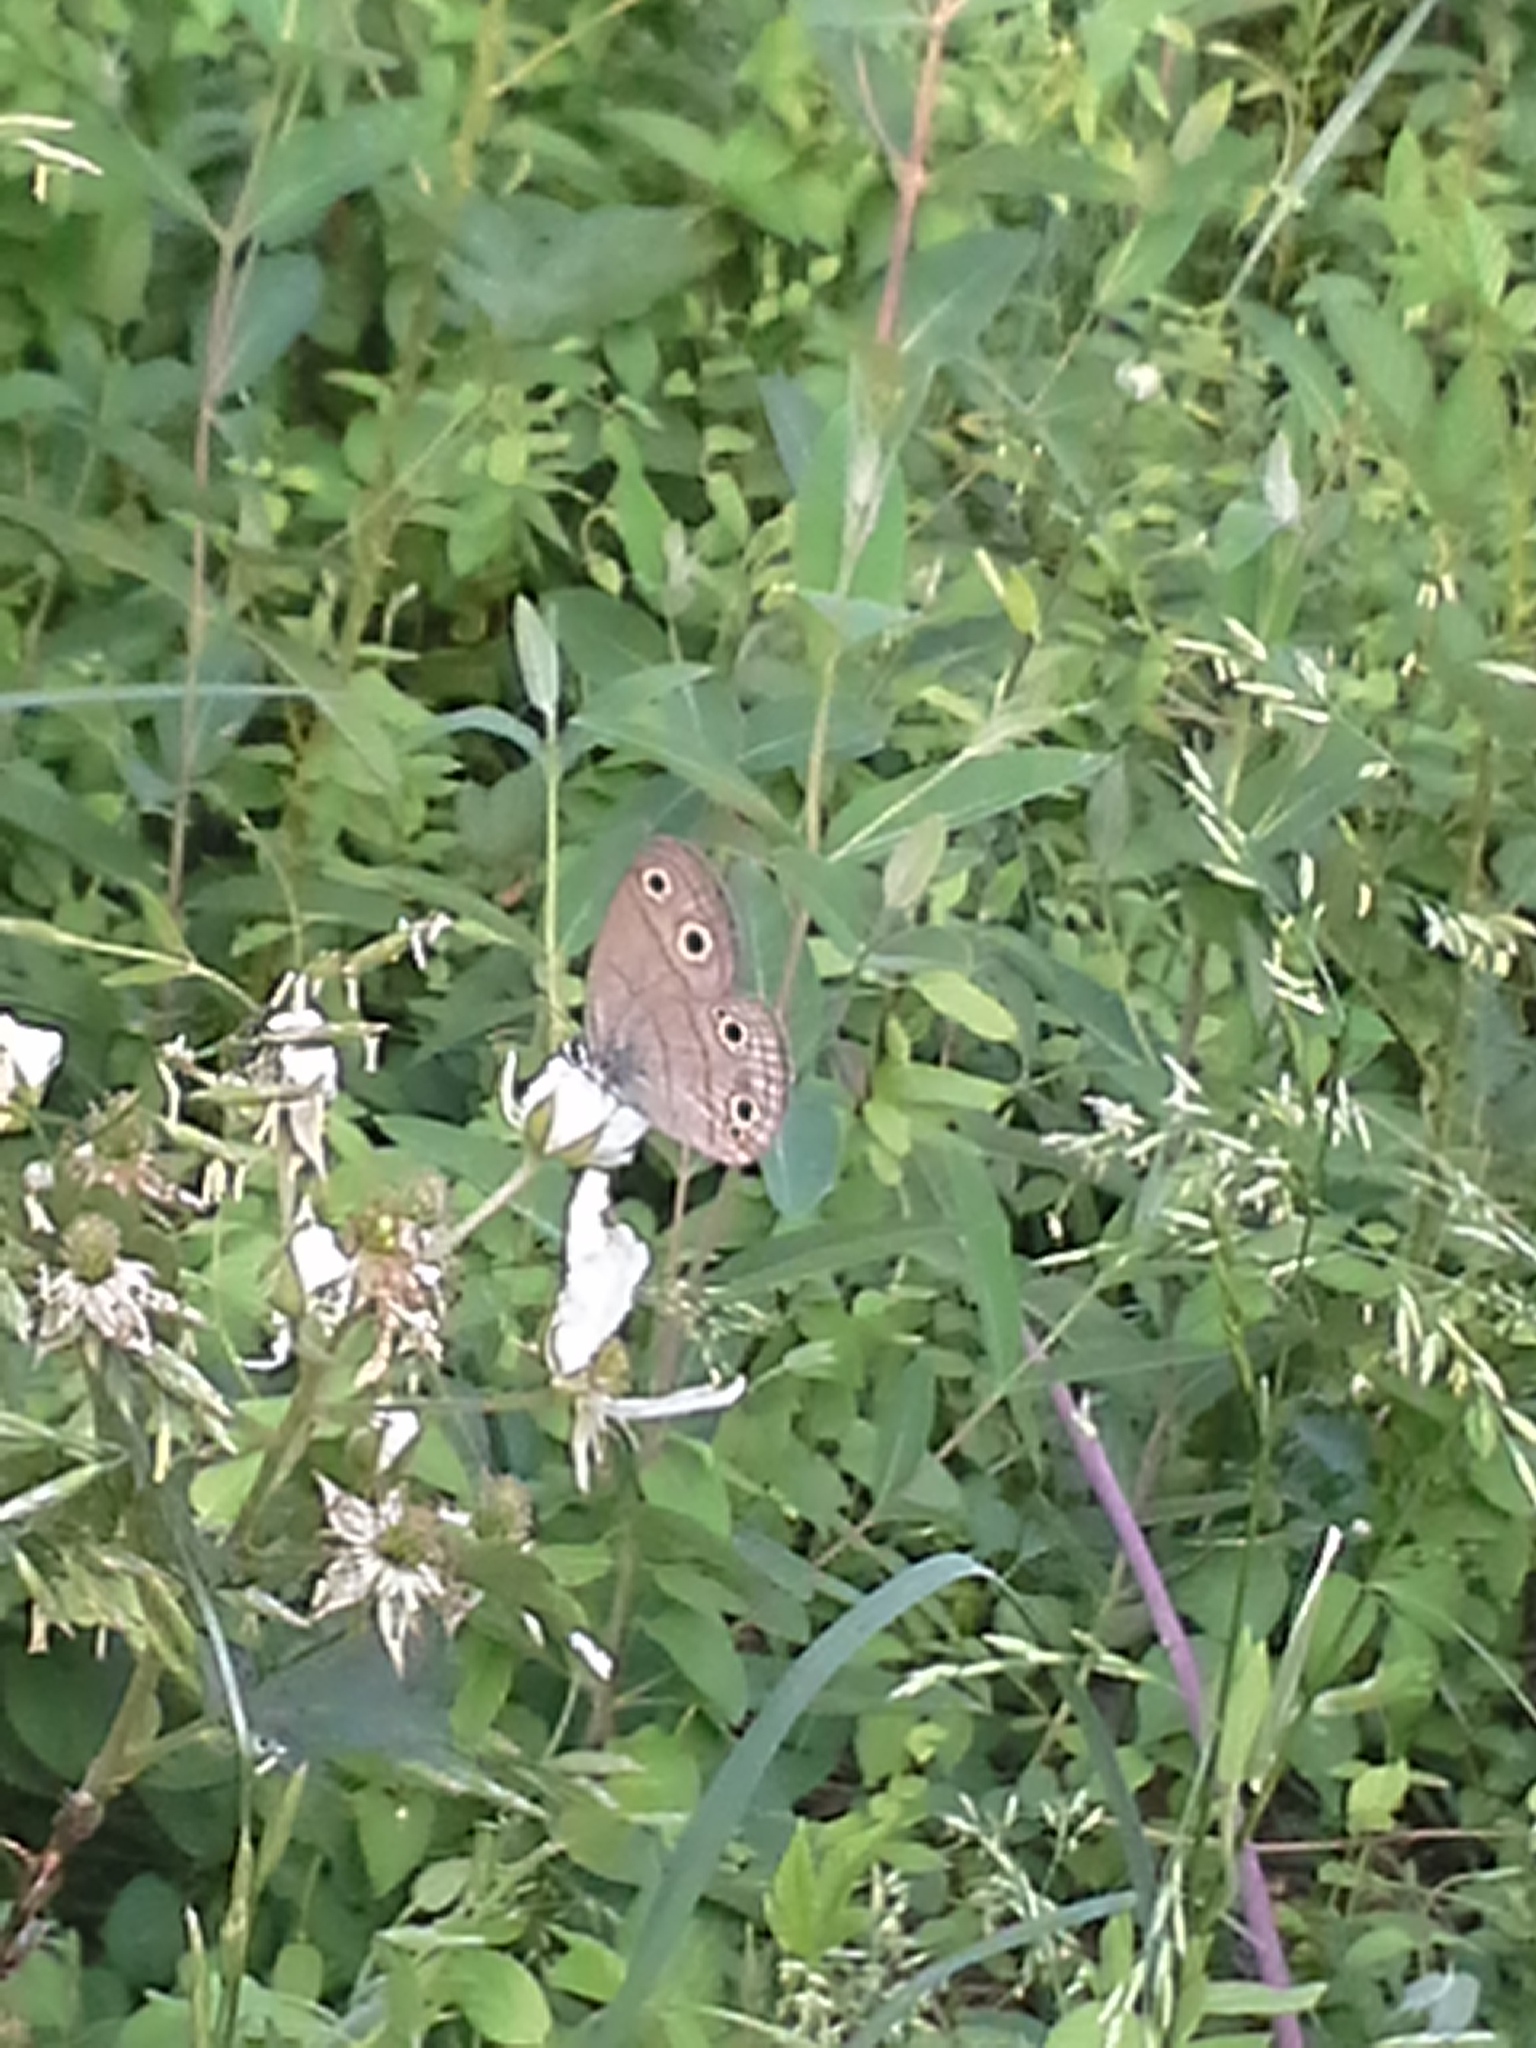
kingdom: Animalia
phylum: Arthropoda
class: Insecta
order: Lepidoptera
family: Nymphalidae
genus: Euptychia
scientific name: Euptychia cymela
